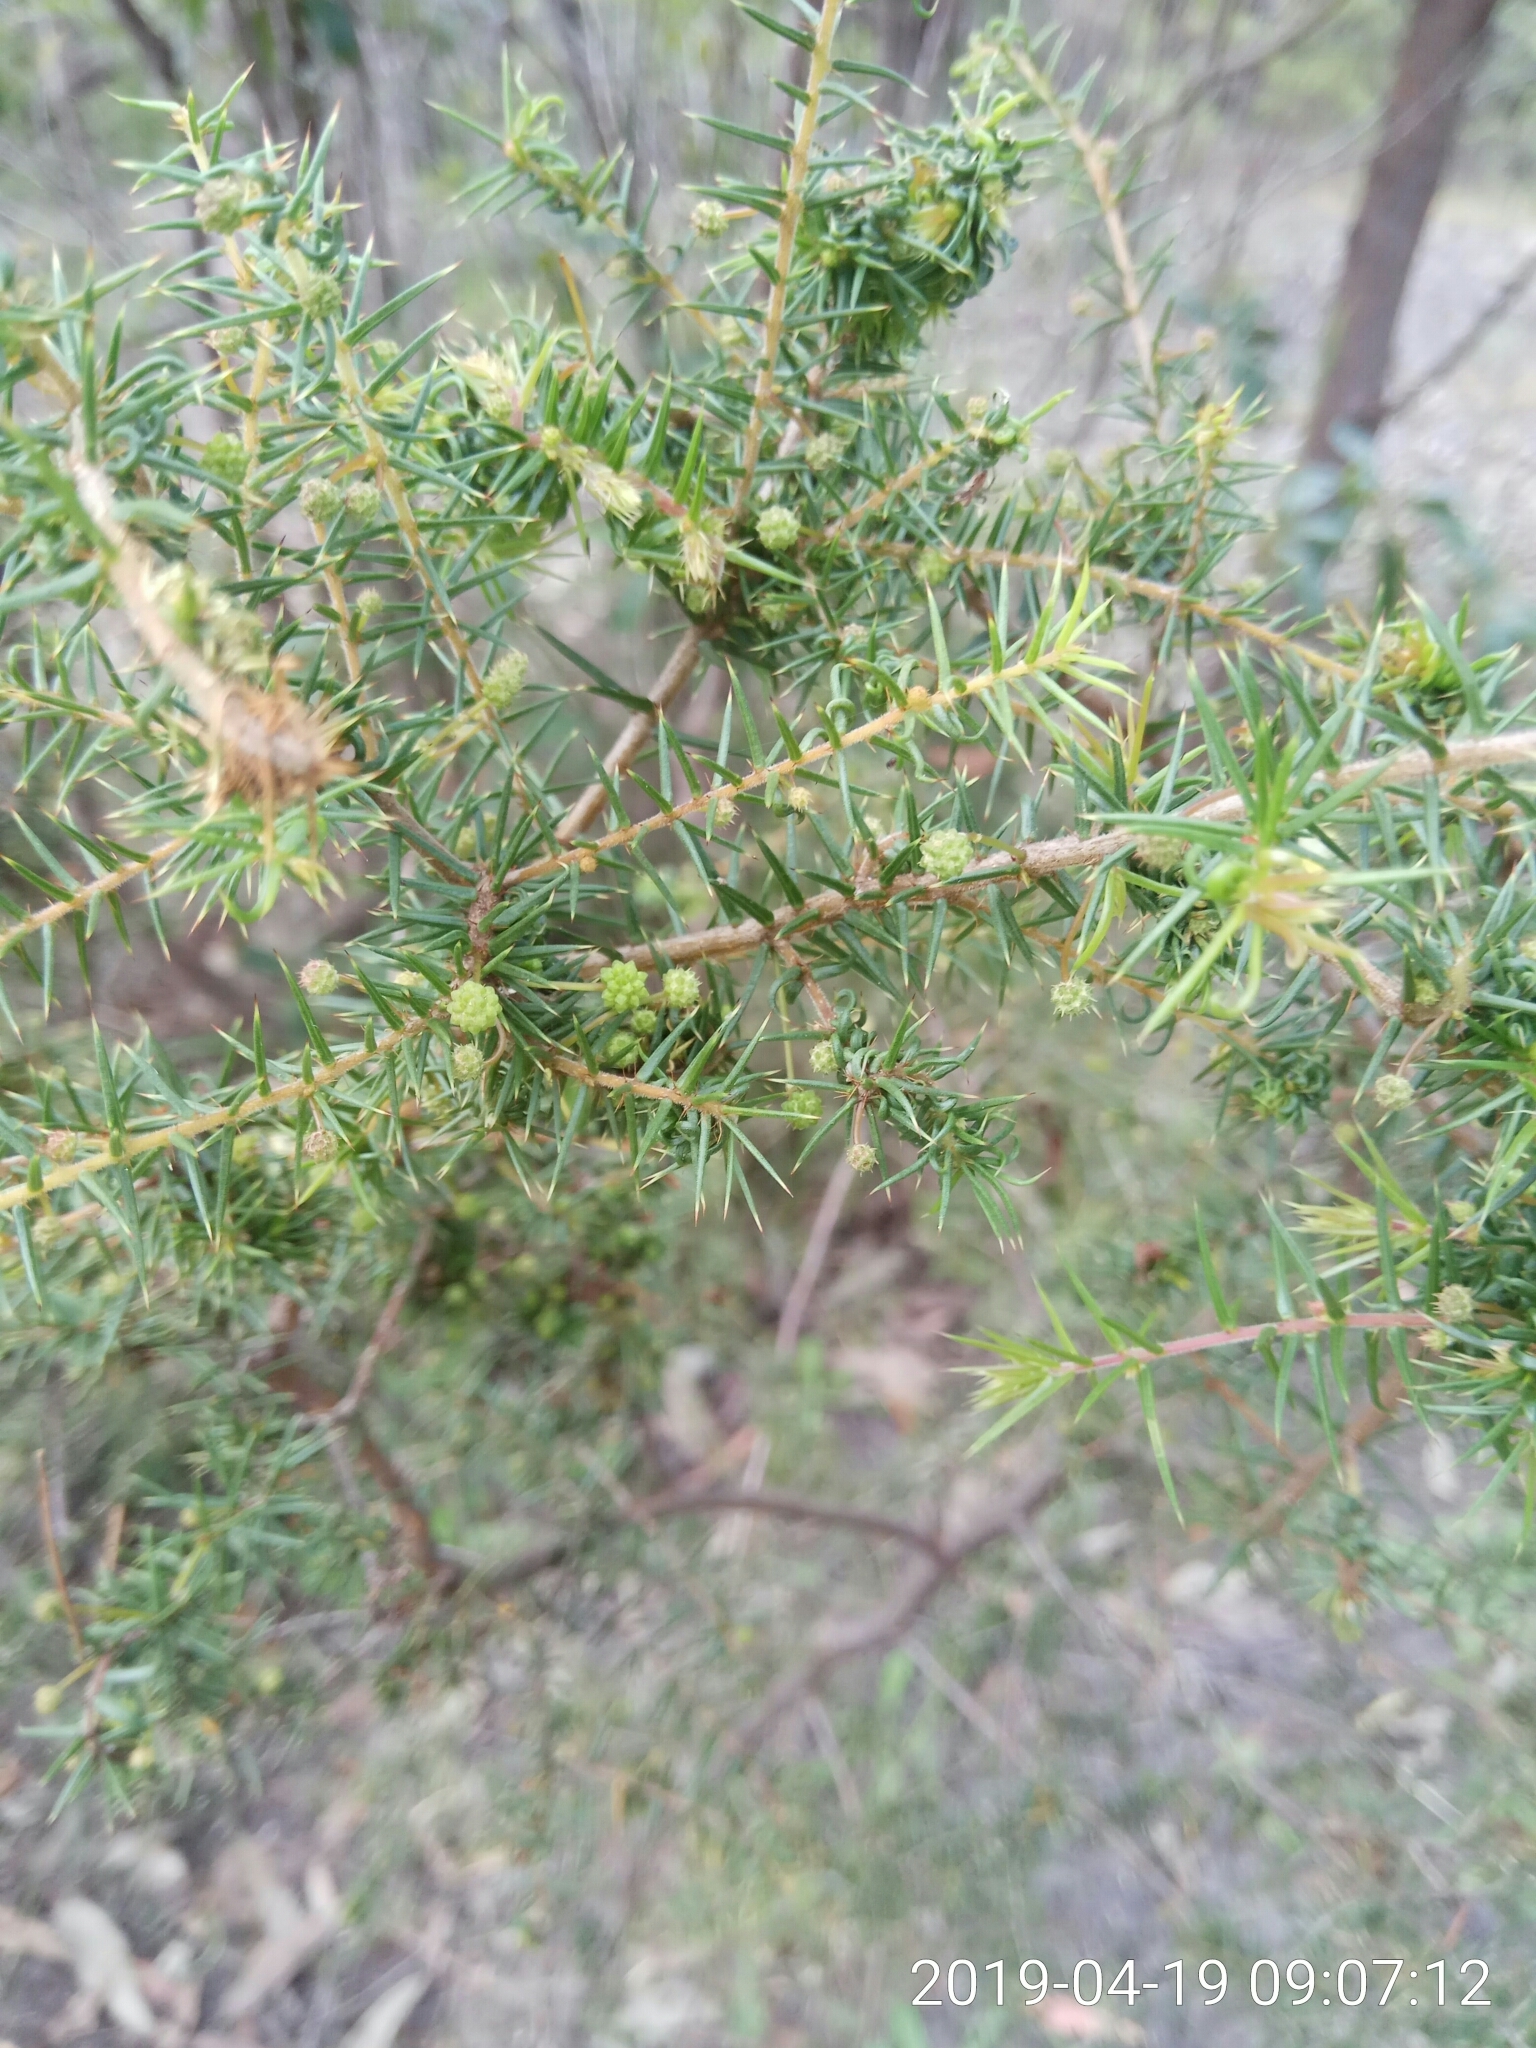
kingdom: Plantae
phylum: Tracheophyta
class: Magnoliopsida
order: Fabales
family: Fabaceae
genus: Acacia
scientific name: Acacia ulicifolia
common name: Juniper wattle
